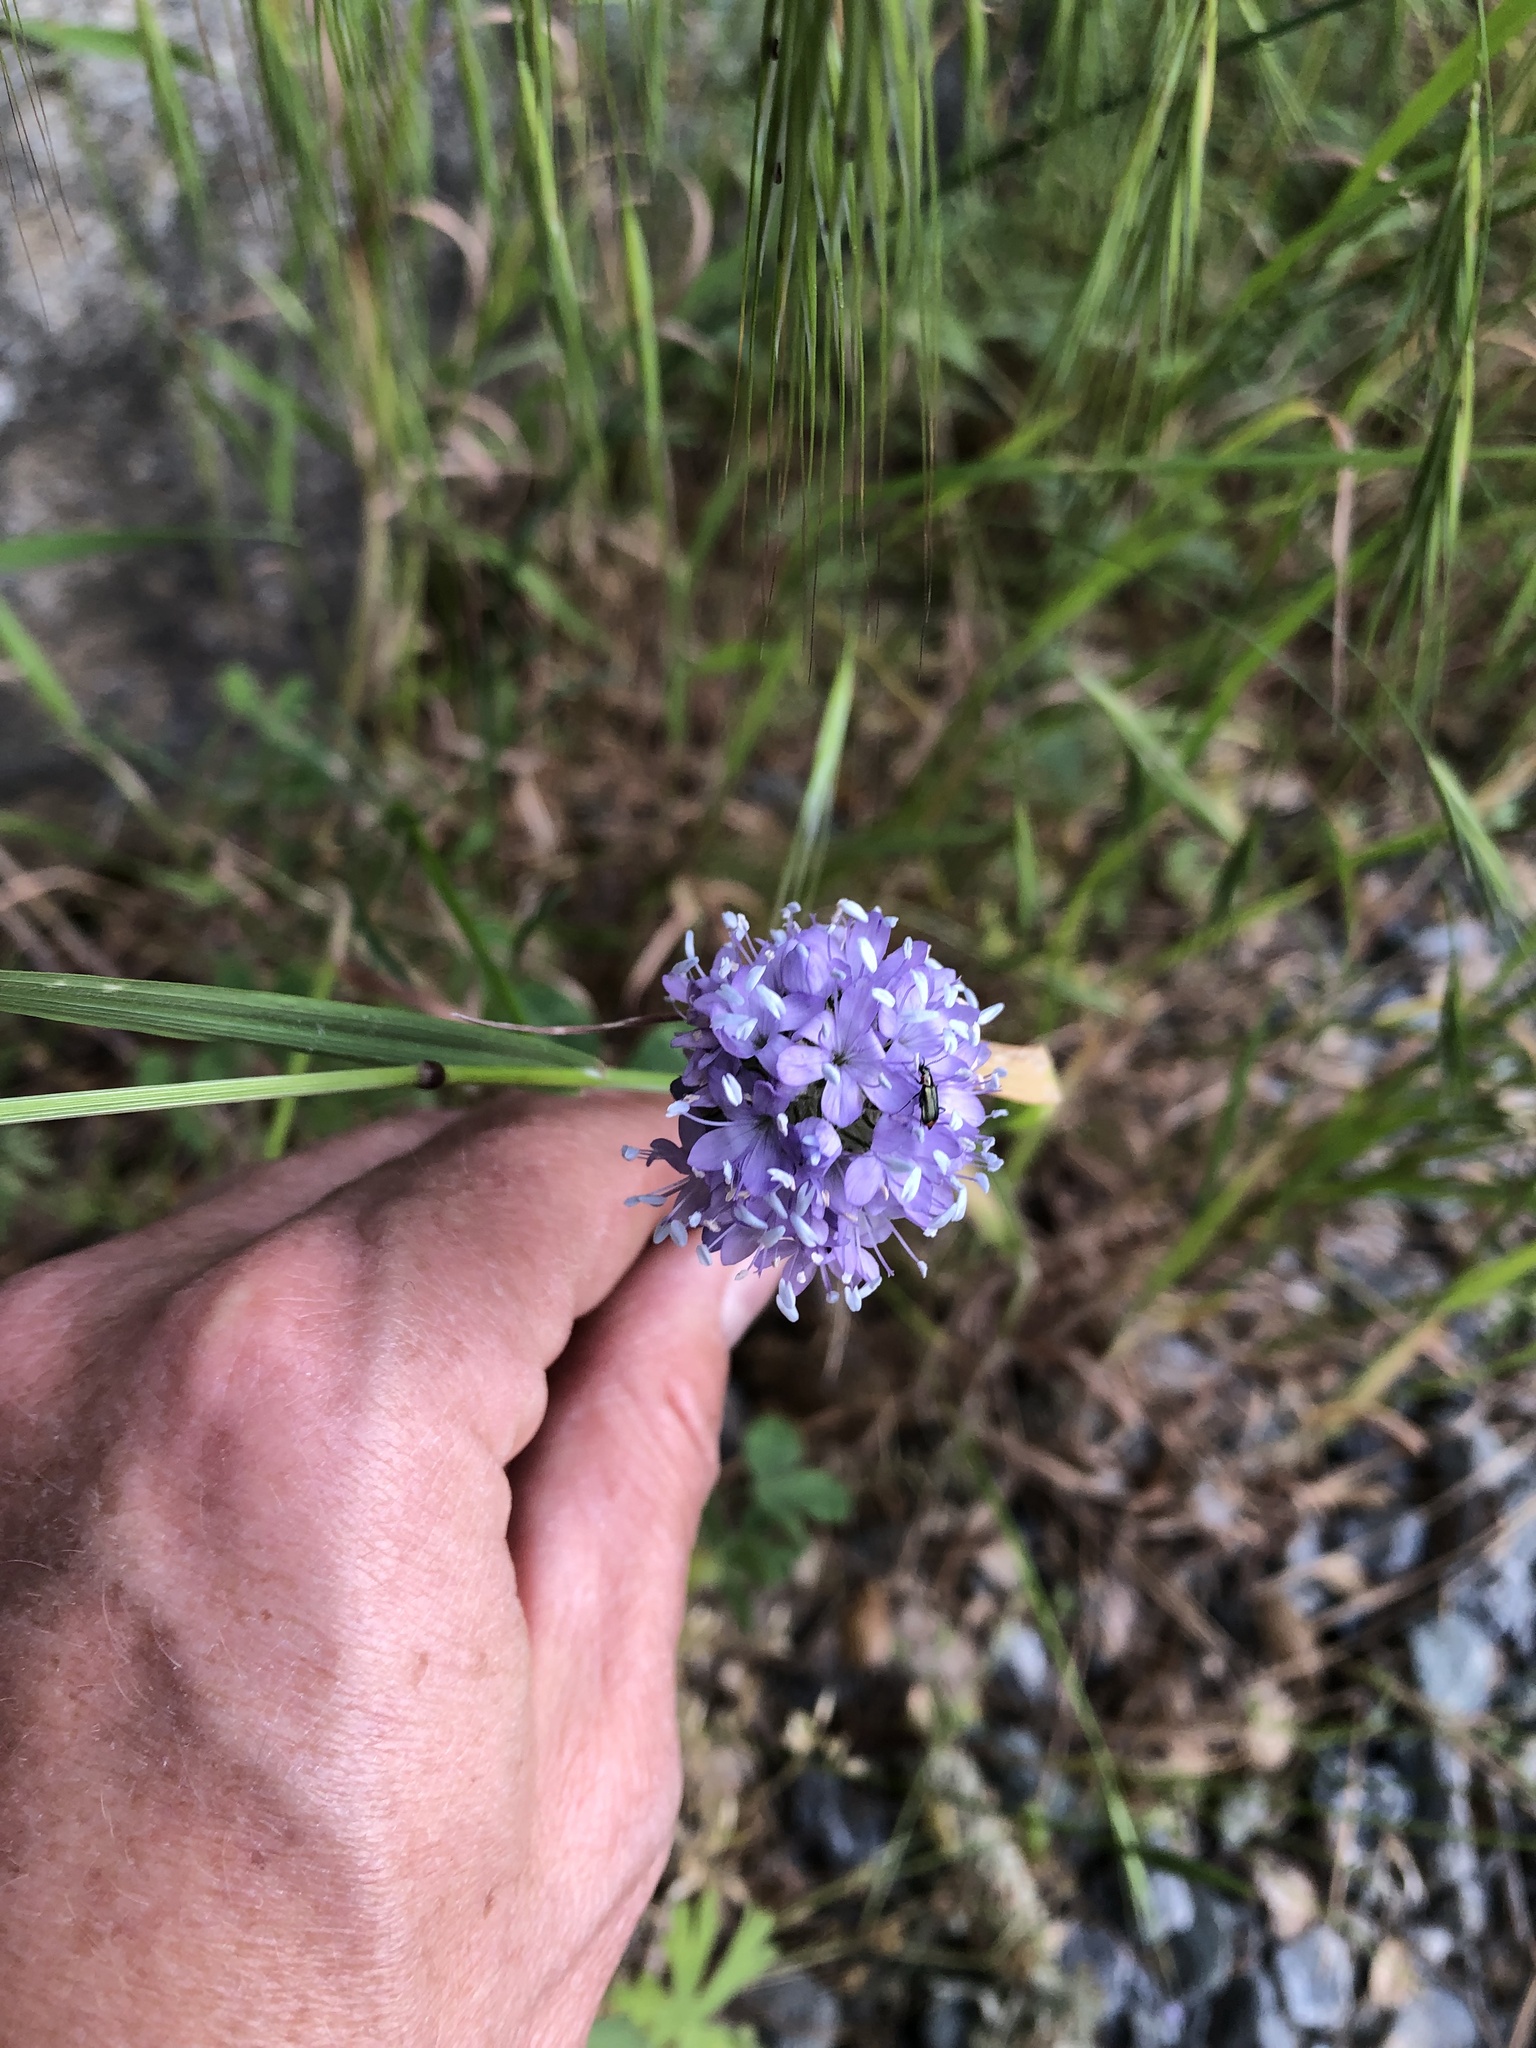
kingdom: Plantae
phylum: Tracheophyta
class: Magnoliopsida
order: Ericales
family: Polemoniaceae
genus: Gilia
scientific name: Gilia capitata
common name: Bluehead gilia
